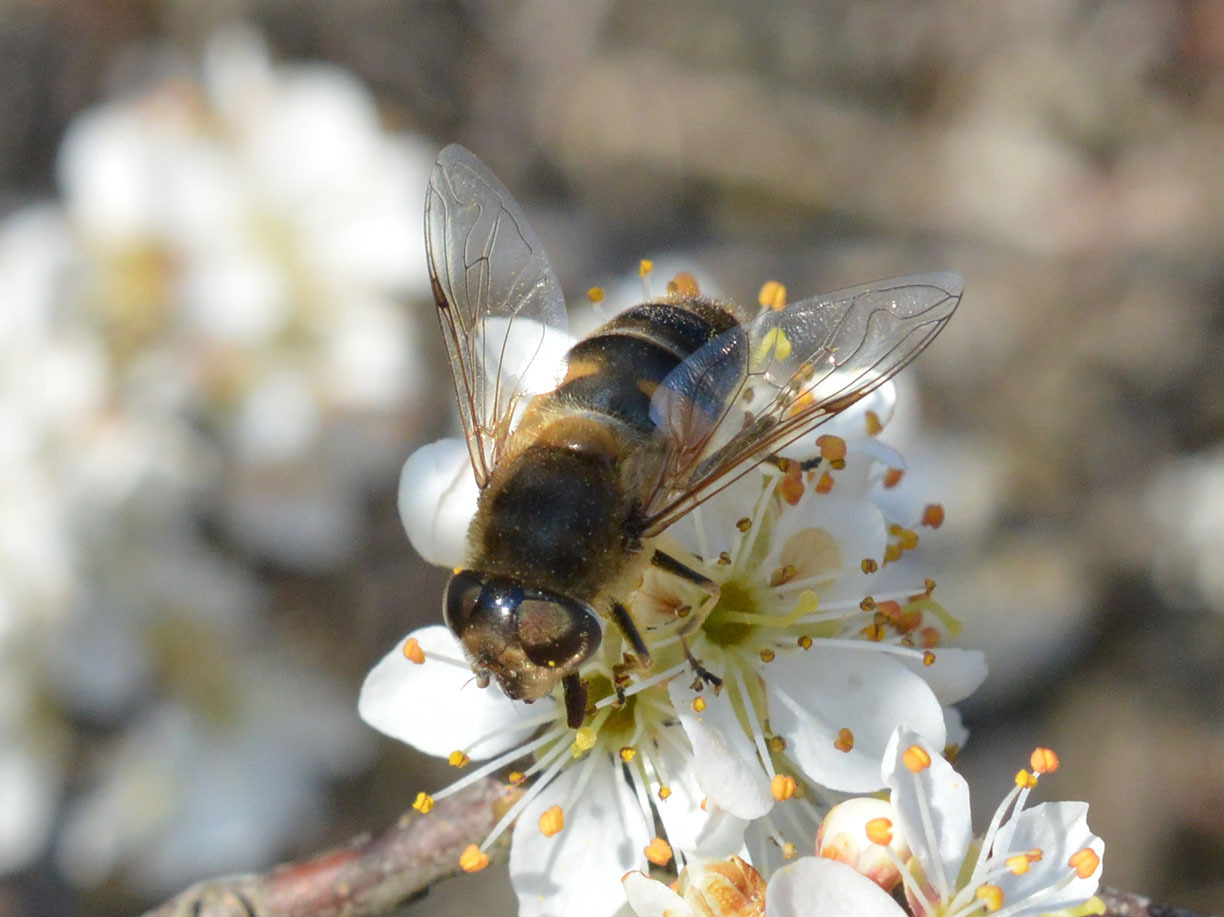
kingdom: Animalia
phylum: Arthropoda
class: Insecta
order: Diptera
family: Syrphidae
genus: Eristalis
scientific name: Eristalis pertinax
